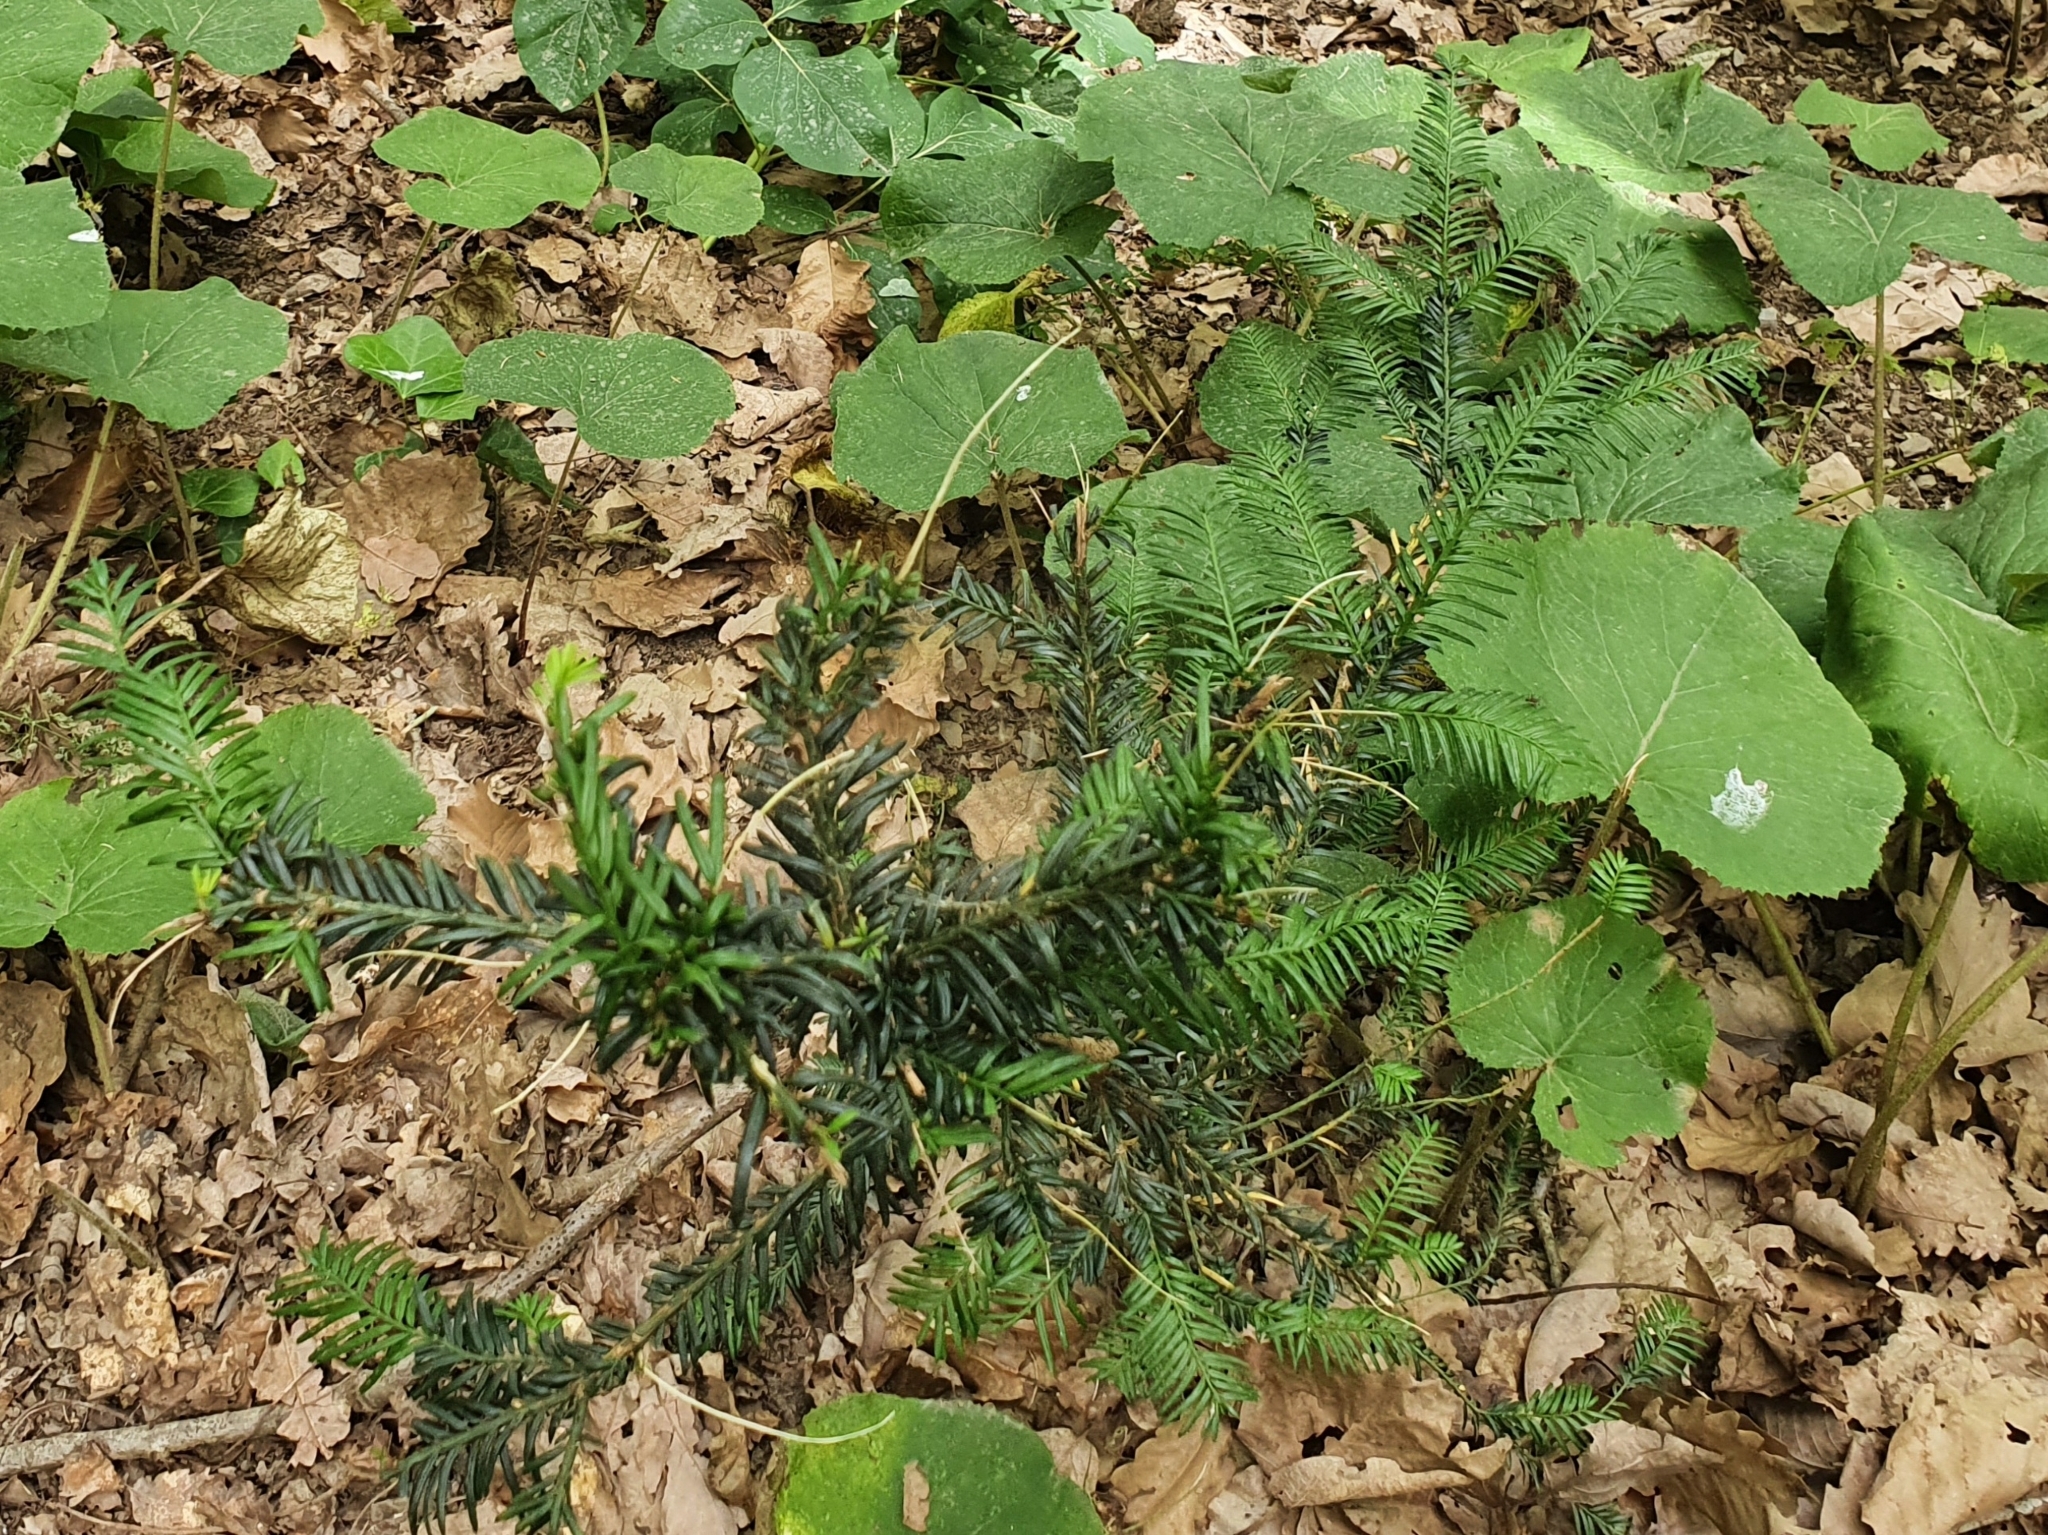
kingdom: Plantae
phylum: Tracheophyta
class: Pinopsida
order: Pinales
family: Taxaceae
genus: Taxus
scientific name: Taxus baccata
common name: Yew
